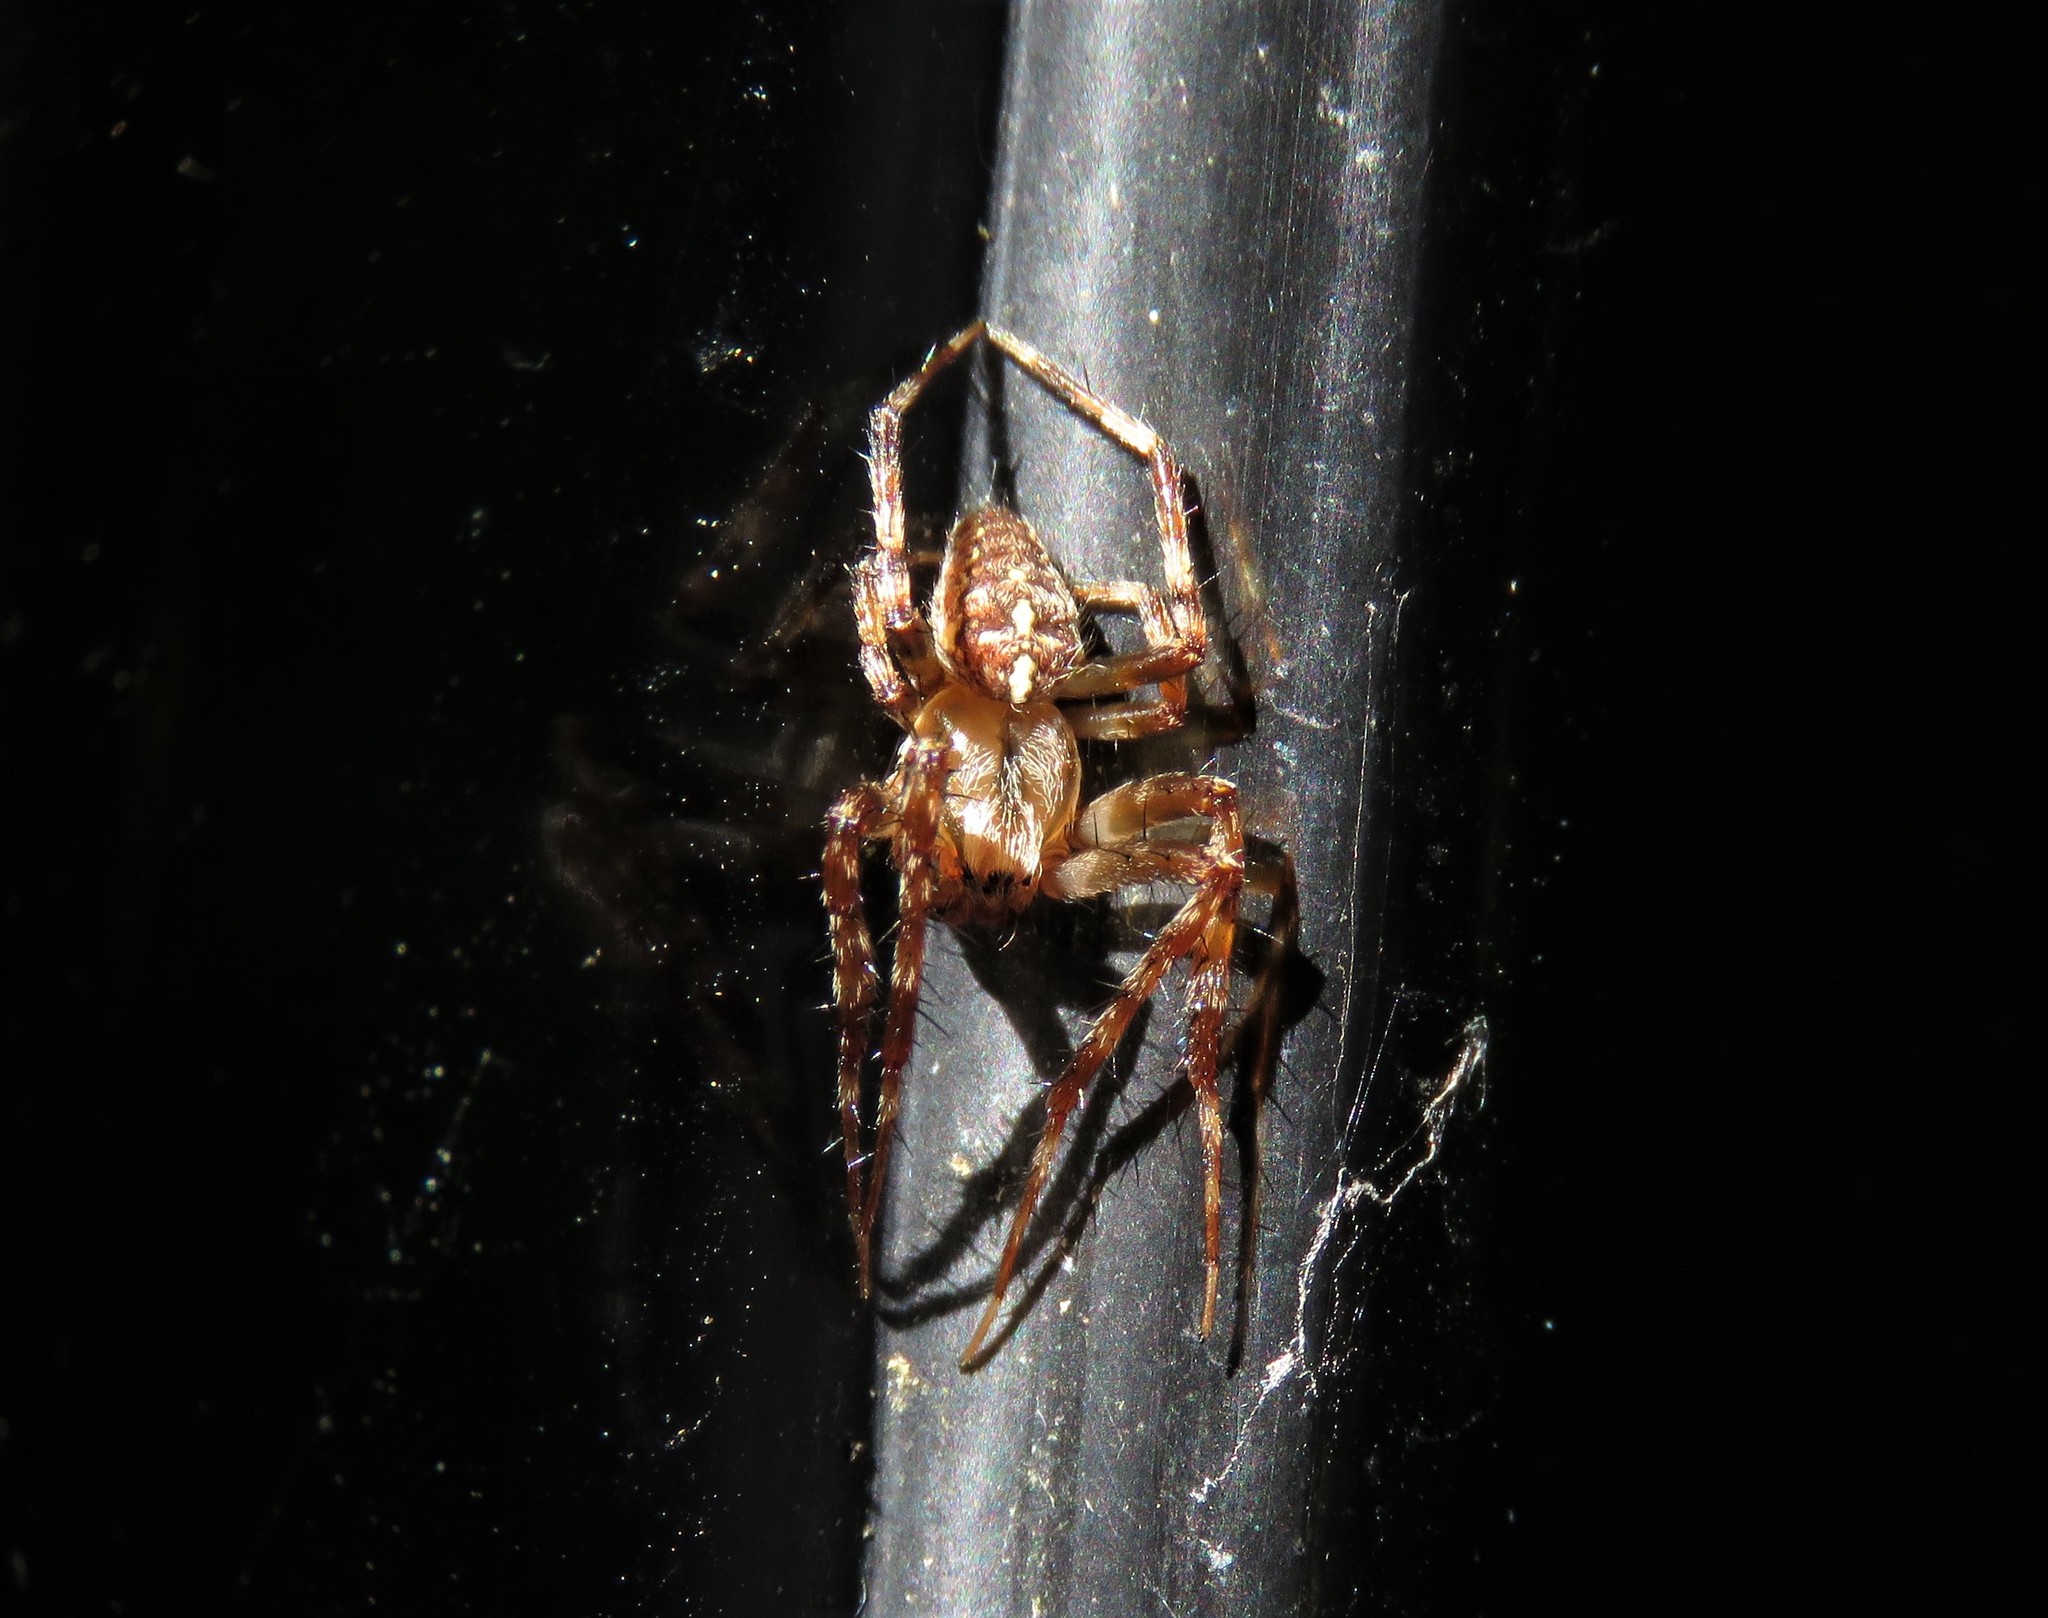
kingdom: Animalia
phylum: Arthropoda
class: Arachnida
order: Araneae
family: Araneidae
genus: Araneus
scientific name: Araneus diadematus
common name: Cross orbweaver
